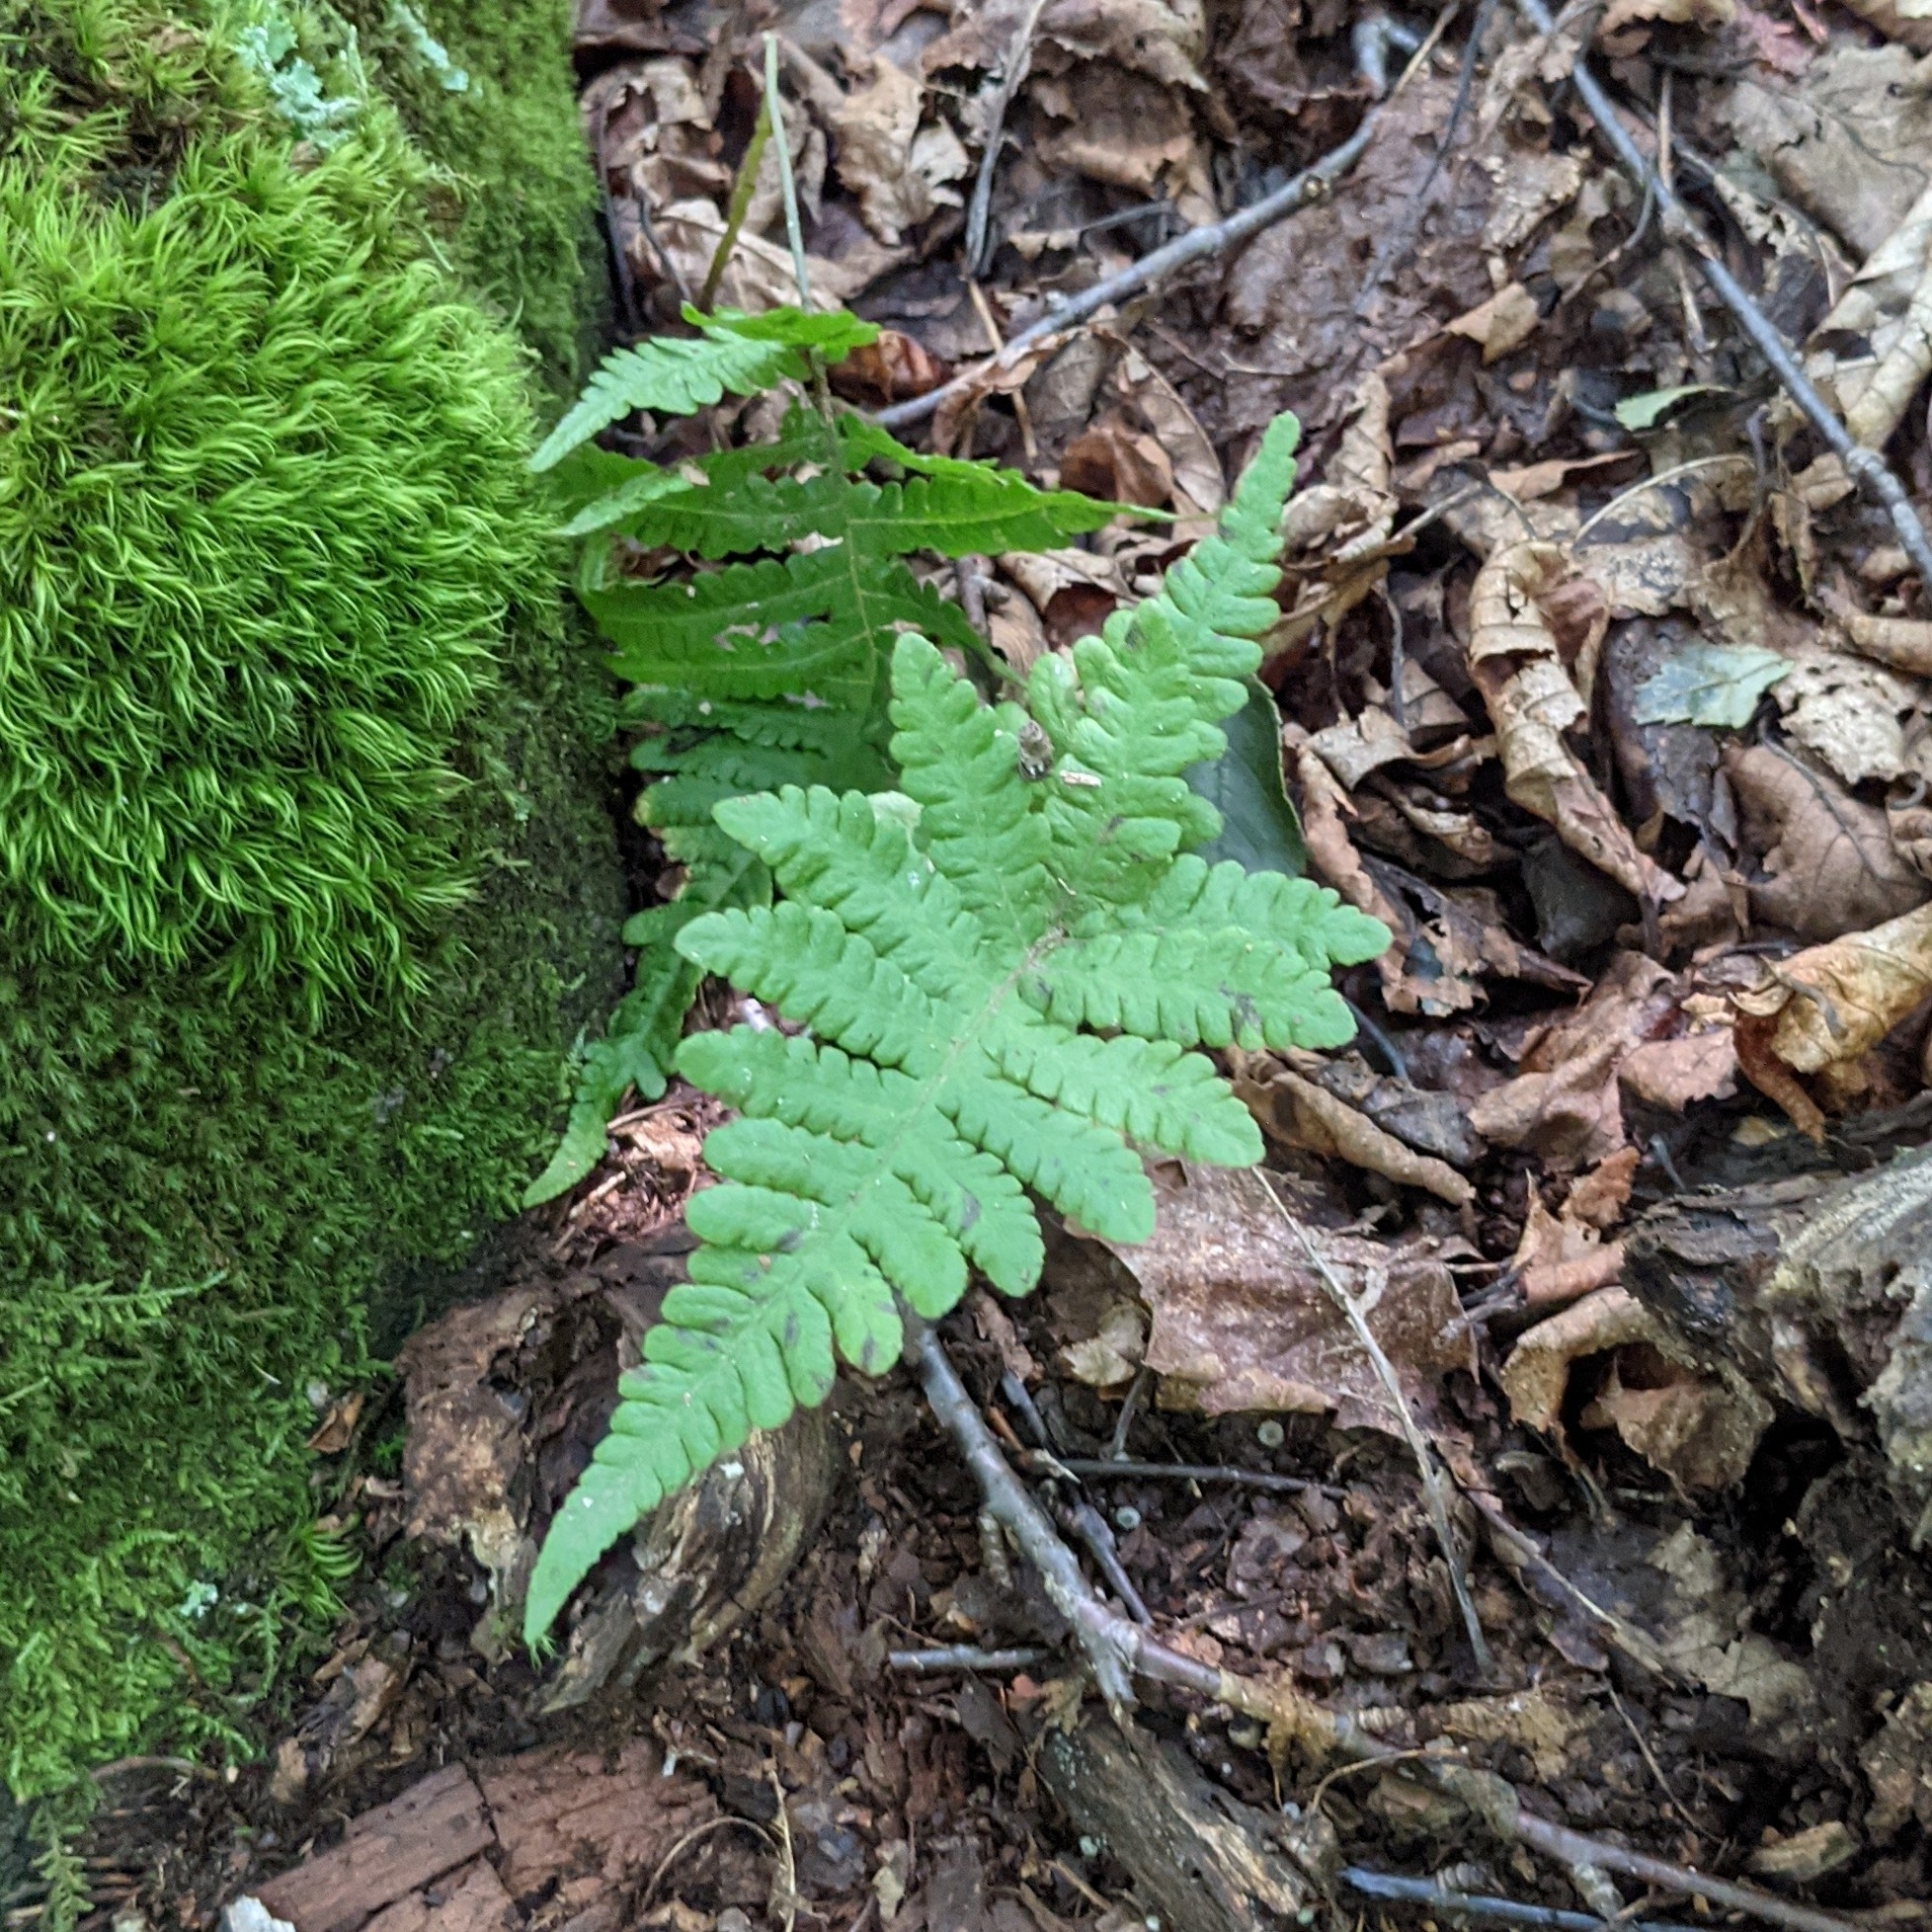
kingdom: Plantae
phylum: Tracheophyta
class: Polypodiopsida
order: Polypodiales
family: Thelypteridaceae
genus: Phegopteris
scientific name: Phegopteris connectilis
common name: Beech fern
